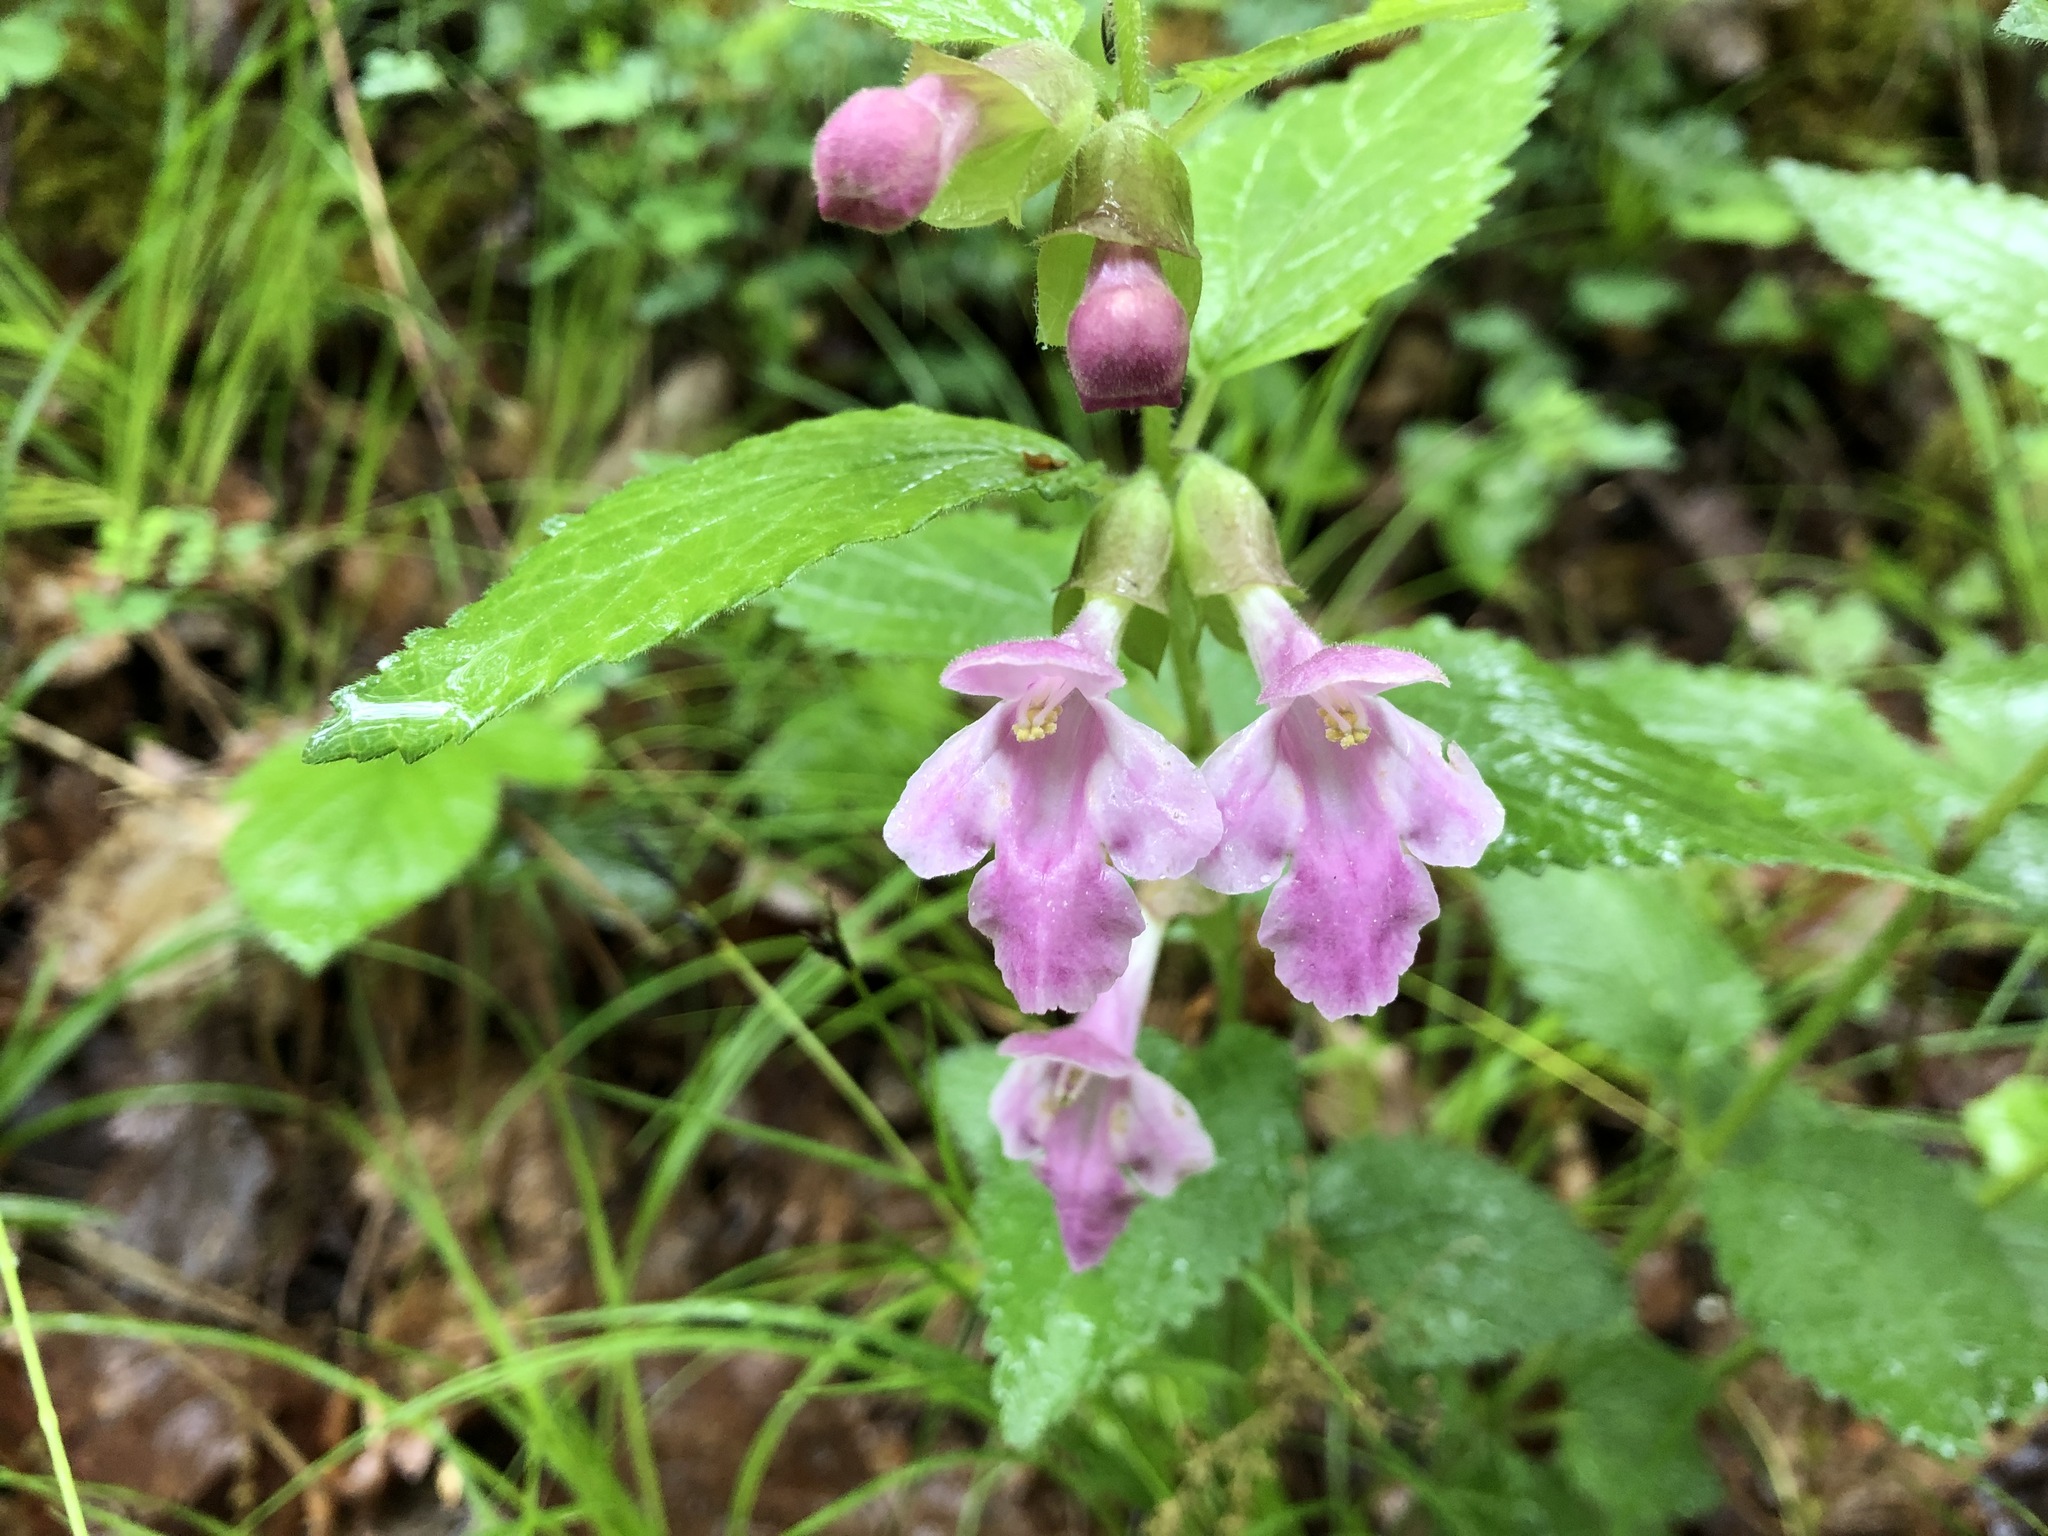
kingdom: Plantae
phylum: Tracheophyta
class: Magnoliopsida
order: Lamiales
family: Lamiaceae
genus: Melittis
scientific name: Melittis melissophyllum
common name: Bastard balm
